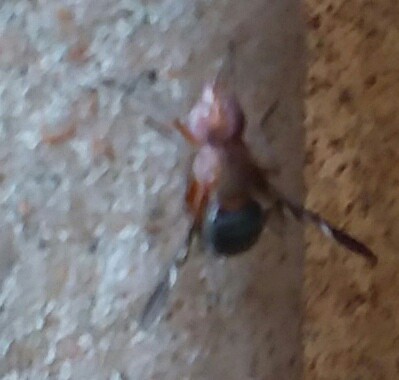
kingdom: Animalia
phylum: Arthropoda
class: Insecta
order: Diptera
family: Ulidiidae
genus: Delphinia
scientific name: Delphinia picta
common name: Common picture-winged fly
